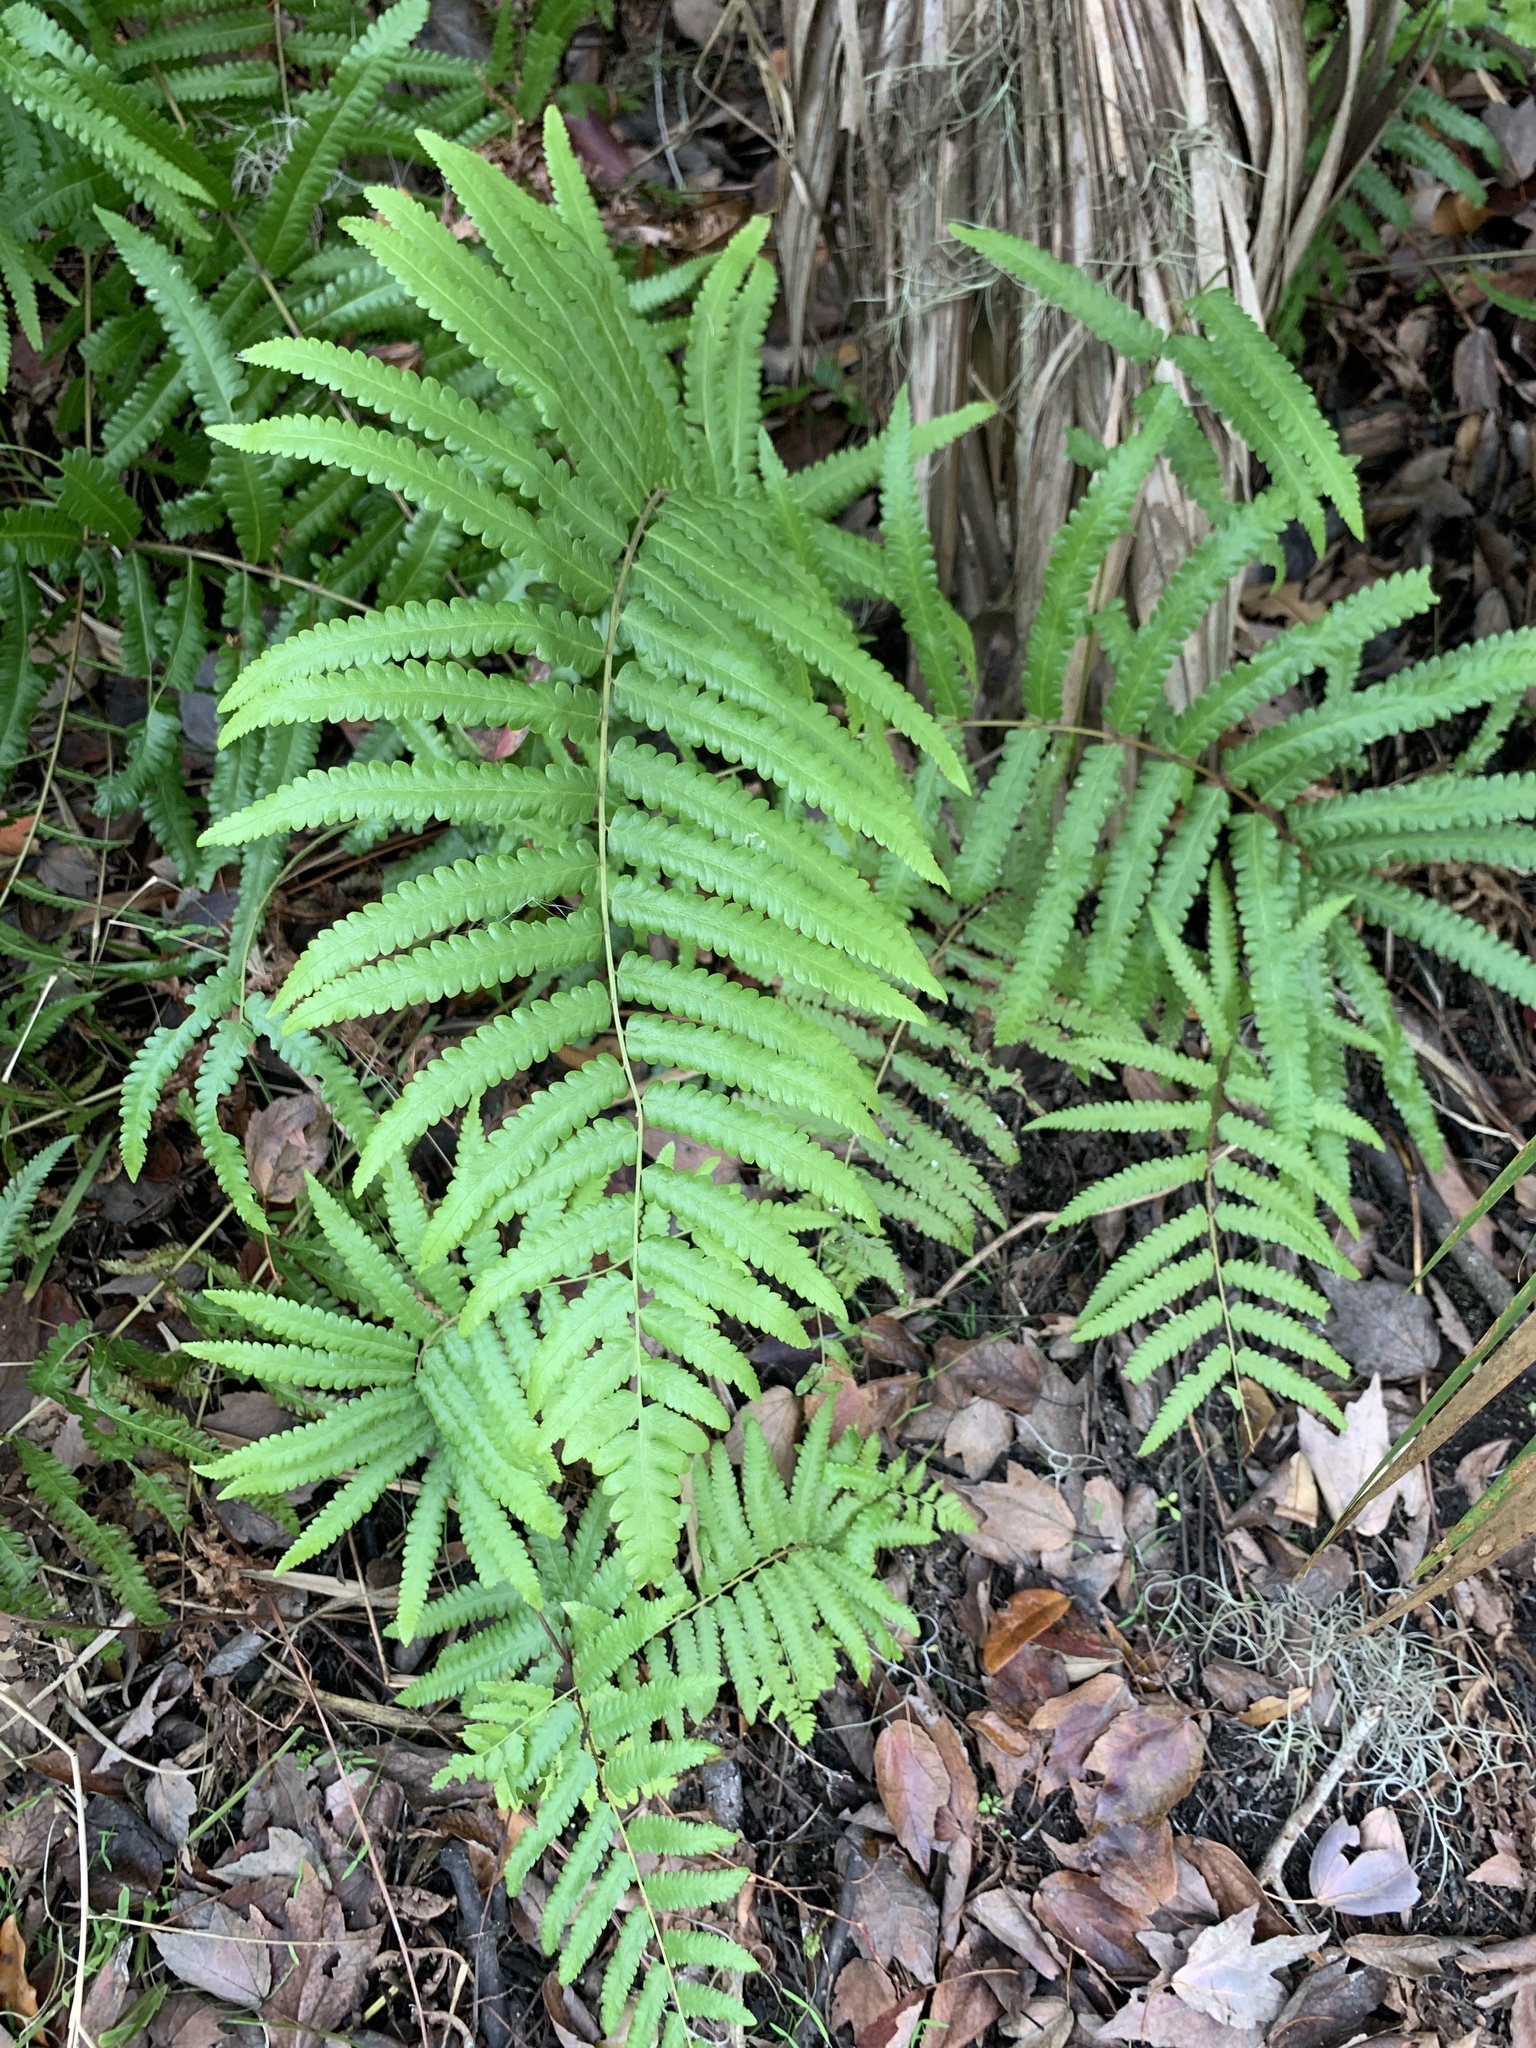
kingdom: Plantae
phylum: Tracheophyta
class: Polypodiopsida
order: Polypodiales
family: Thelypteridaceae
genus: Cyclosorus
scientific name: Cyclosorus interruptus
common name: Neke fern
